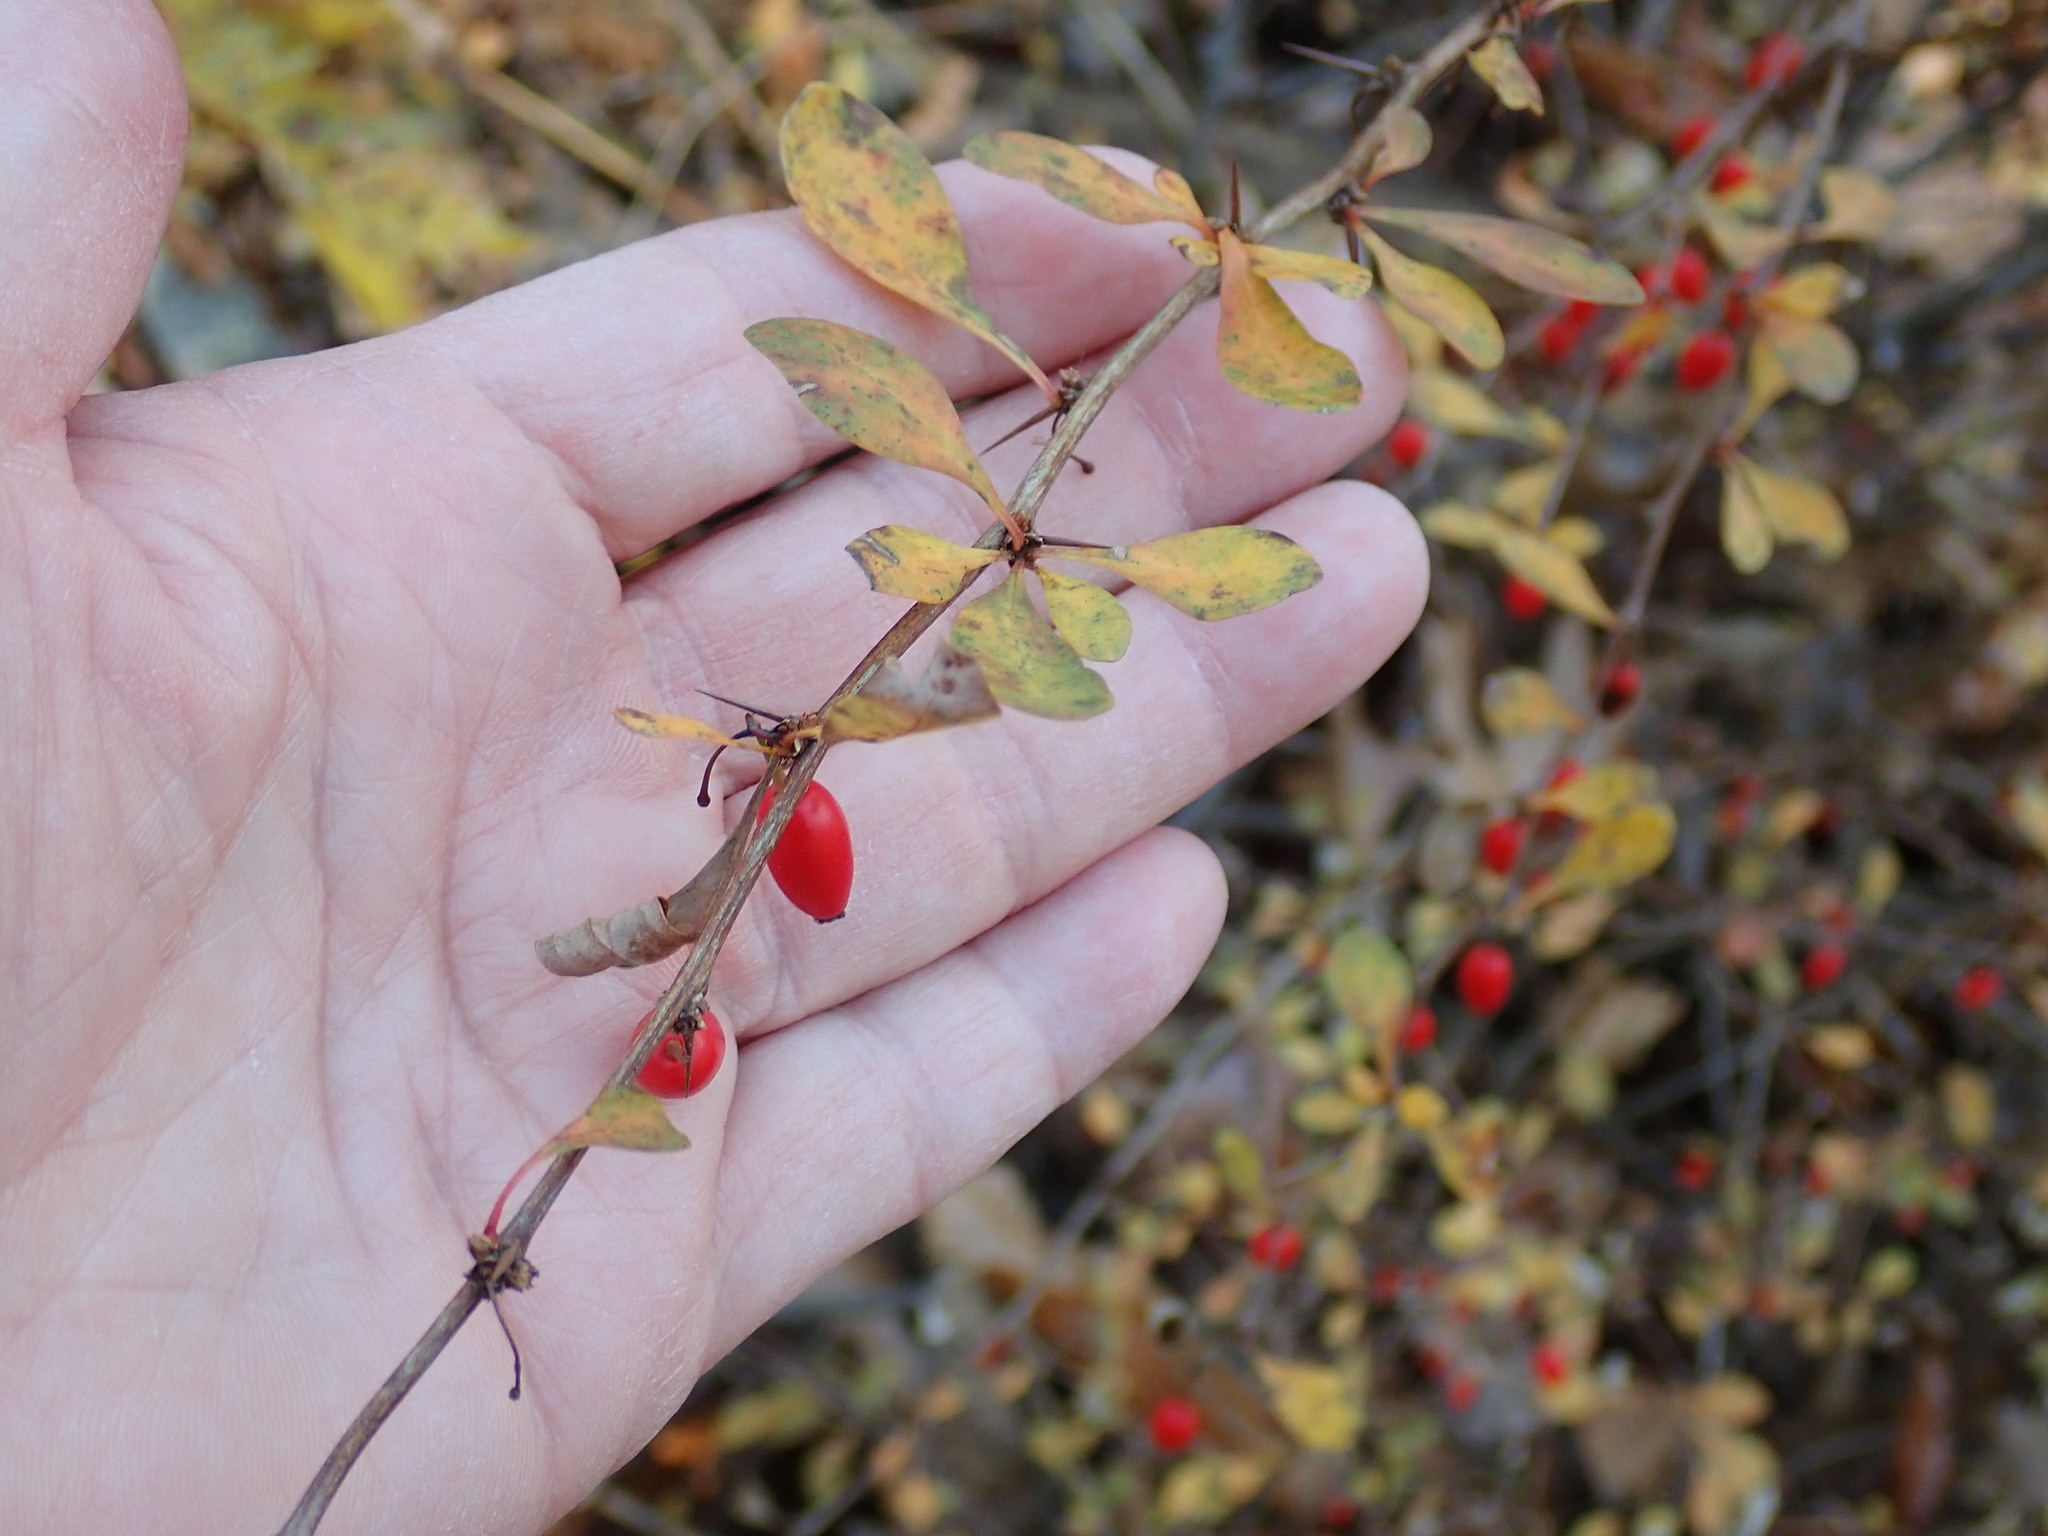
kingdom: Plantae
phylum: Tracheophyta
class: Magnoliopsida
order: Ranunculales
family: Berberidaceae
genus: Berberis
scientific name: Berberis thunbergii
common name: Japanese barberry
